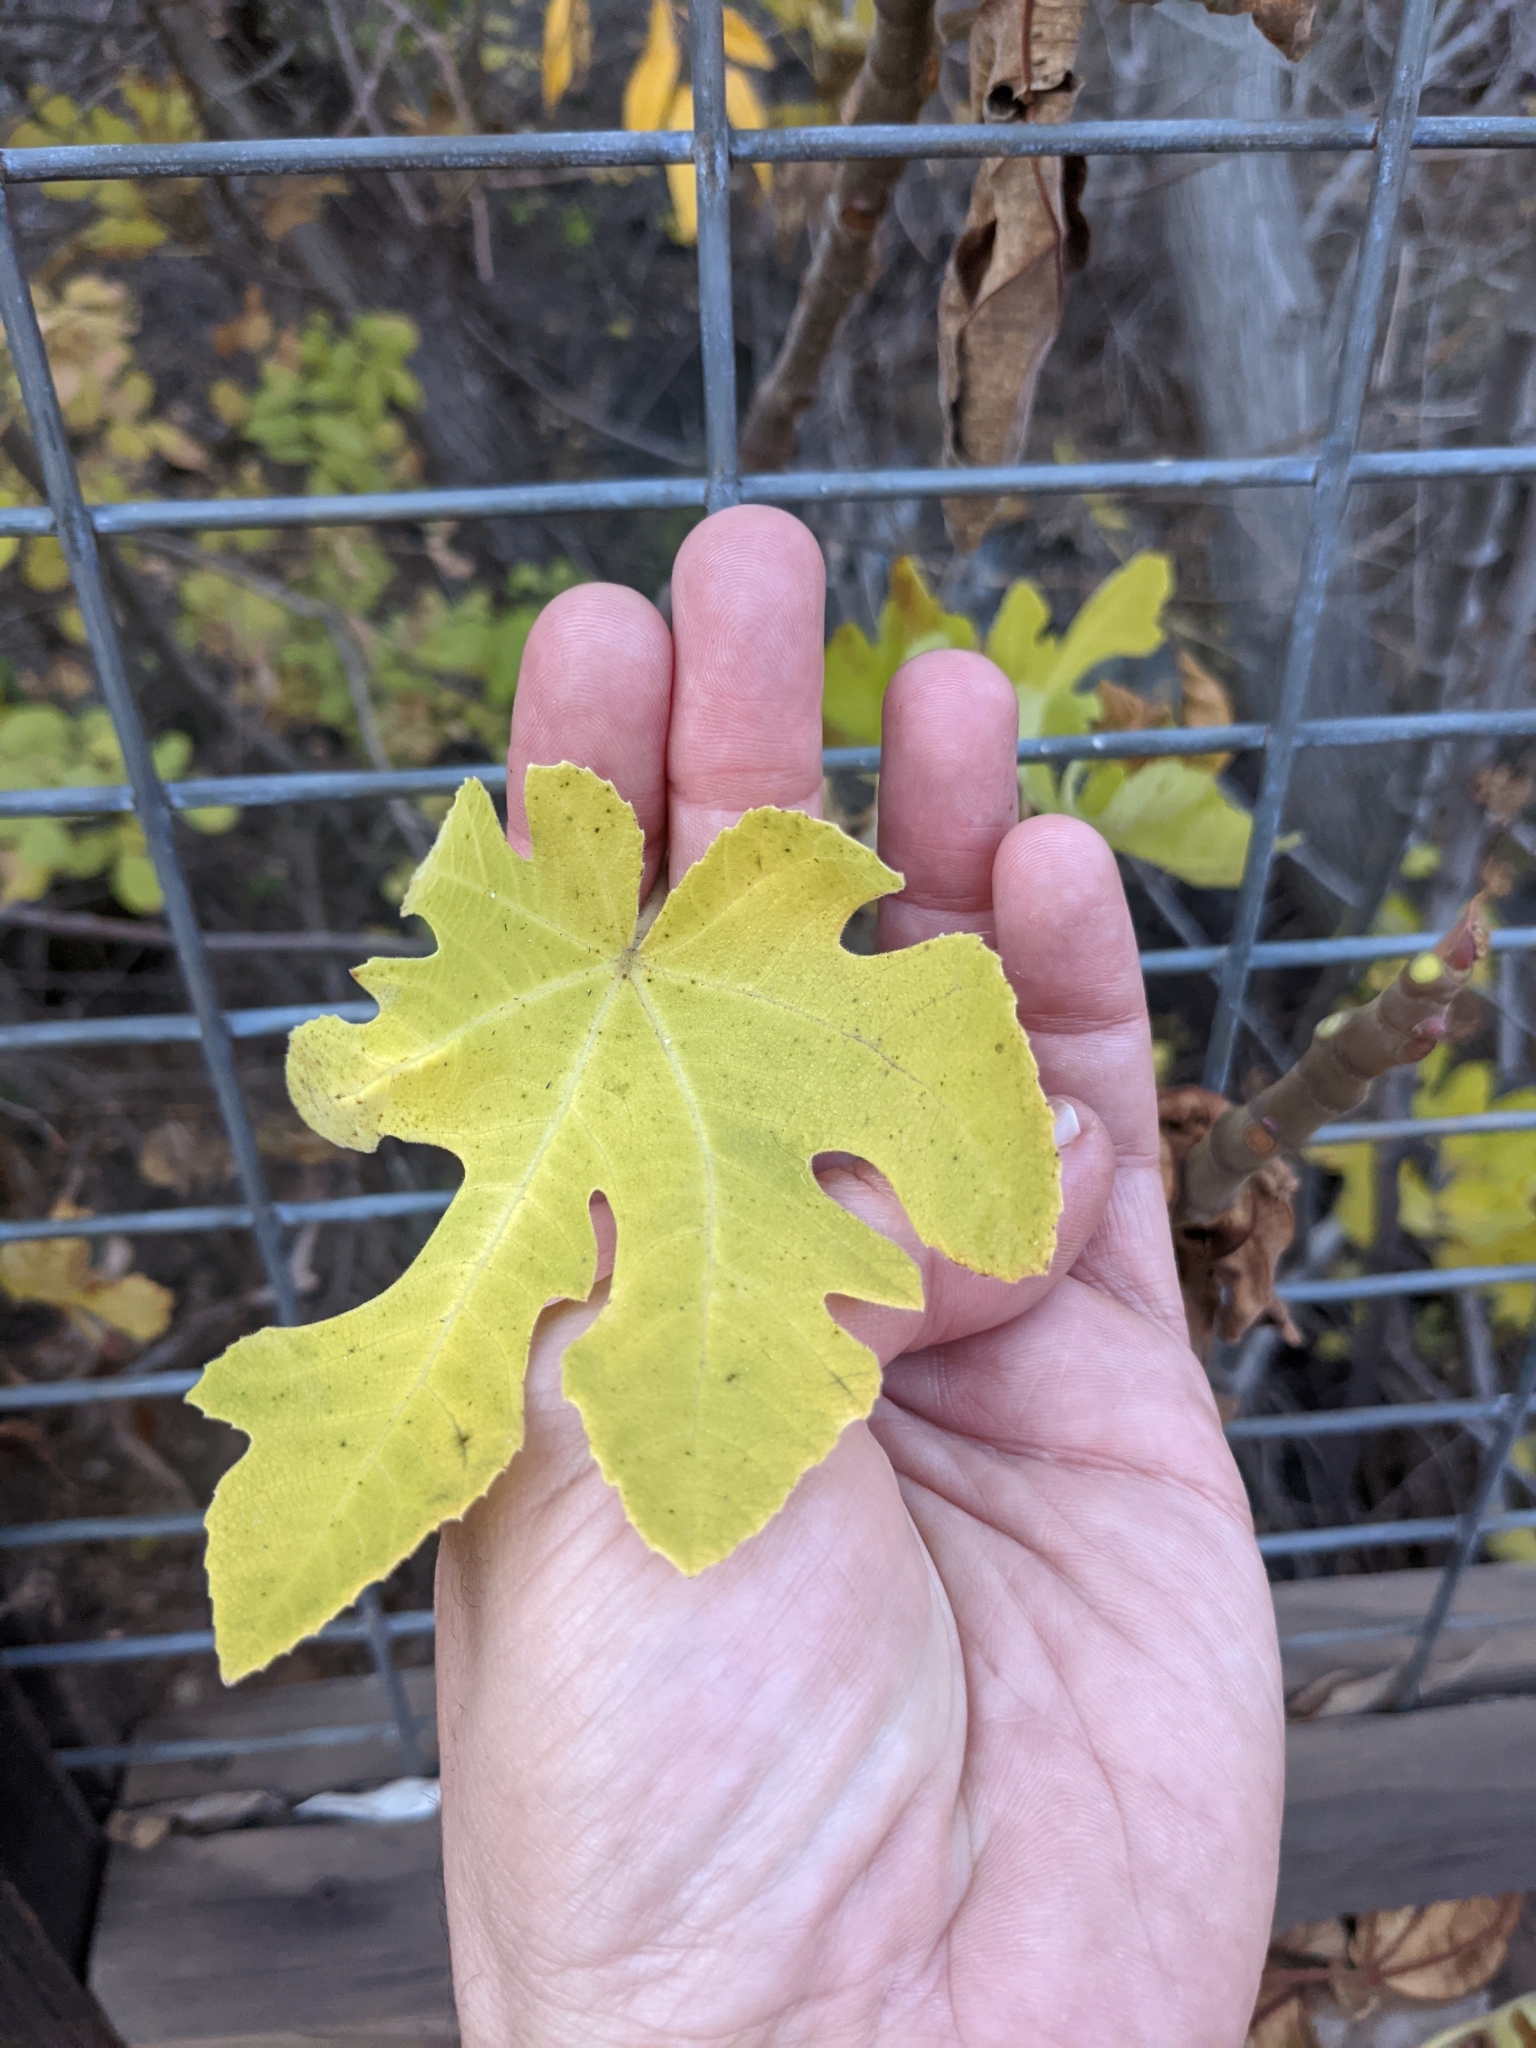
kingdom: Plantae
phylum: Tracheophyta
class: Magnoliopsida
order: Rosales
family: Moraceae
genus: Ficus
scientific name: Ficus carica
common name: Fig
